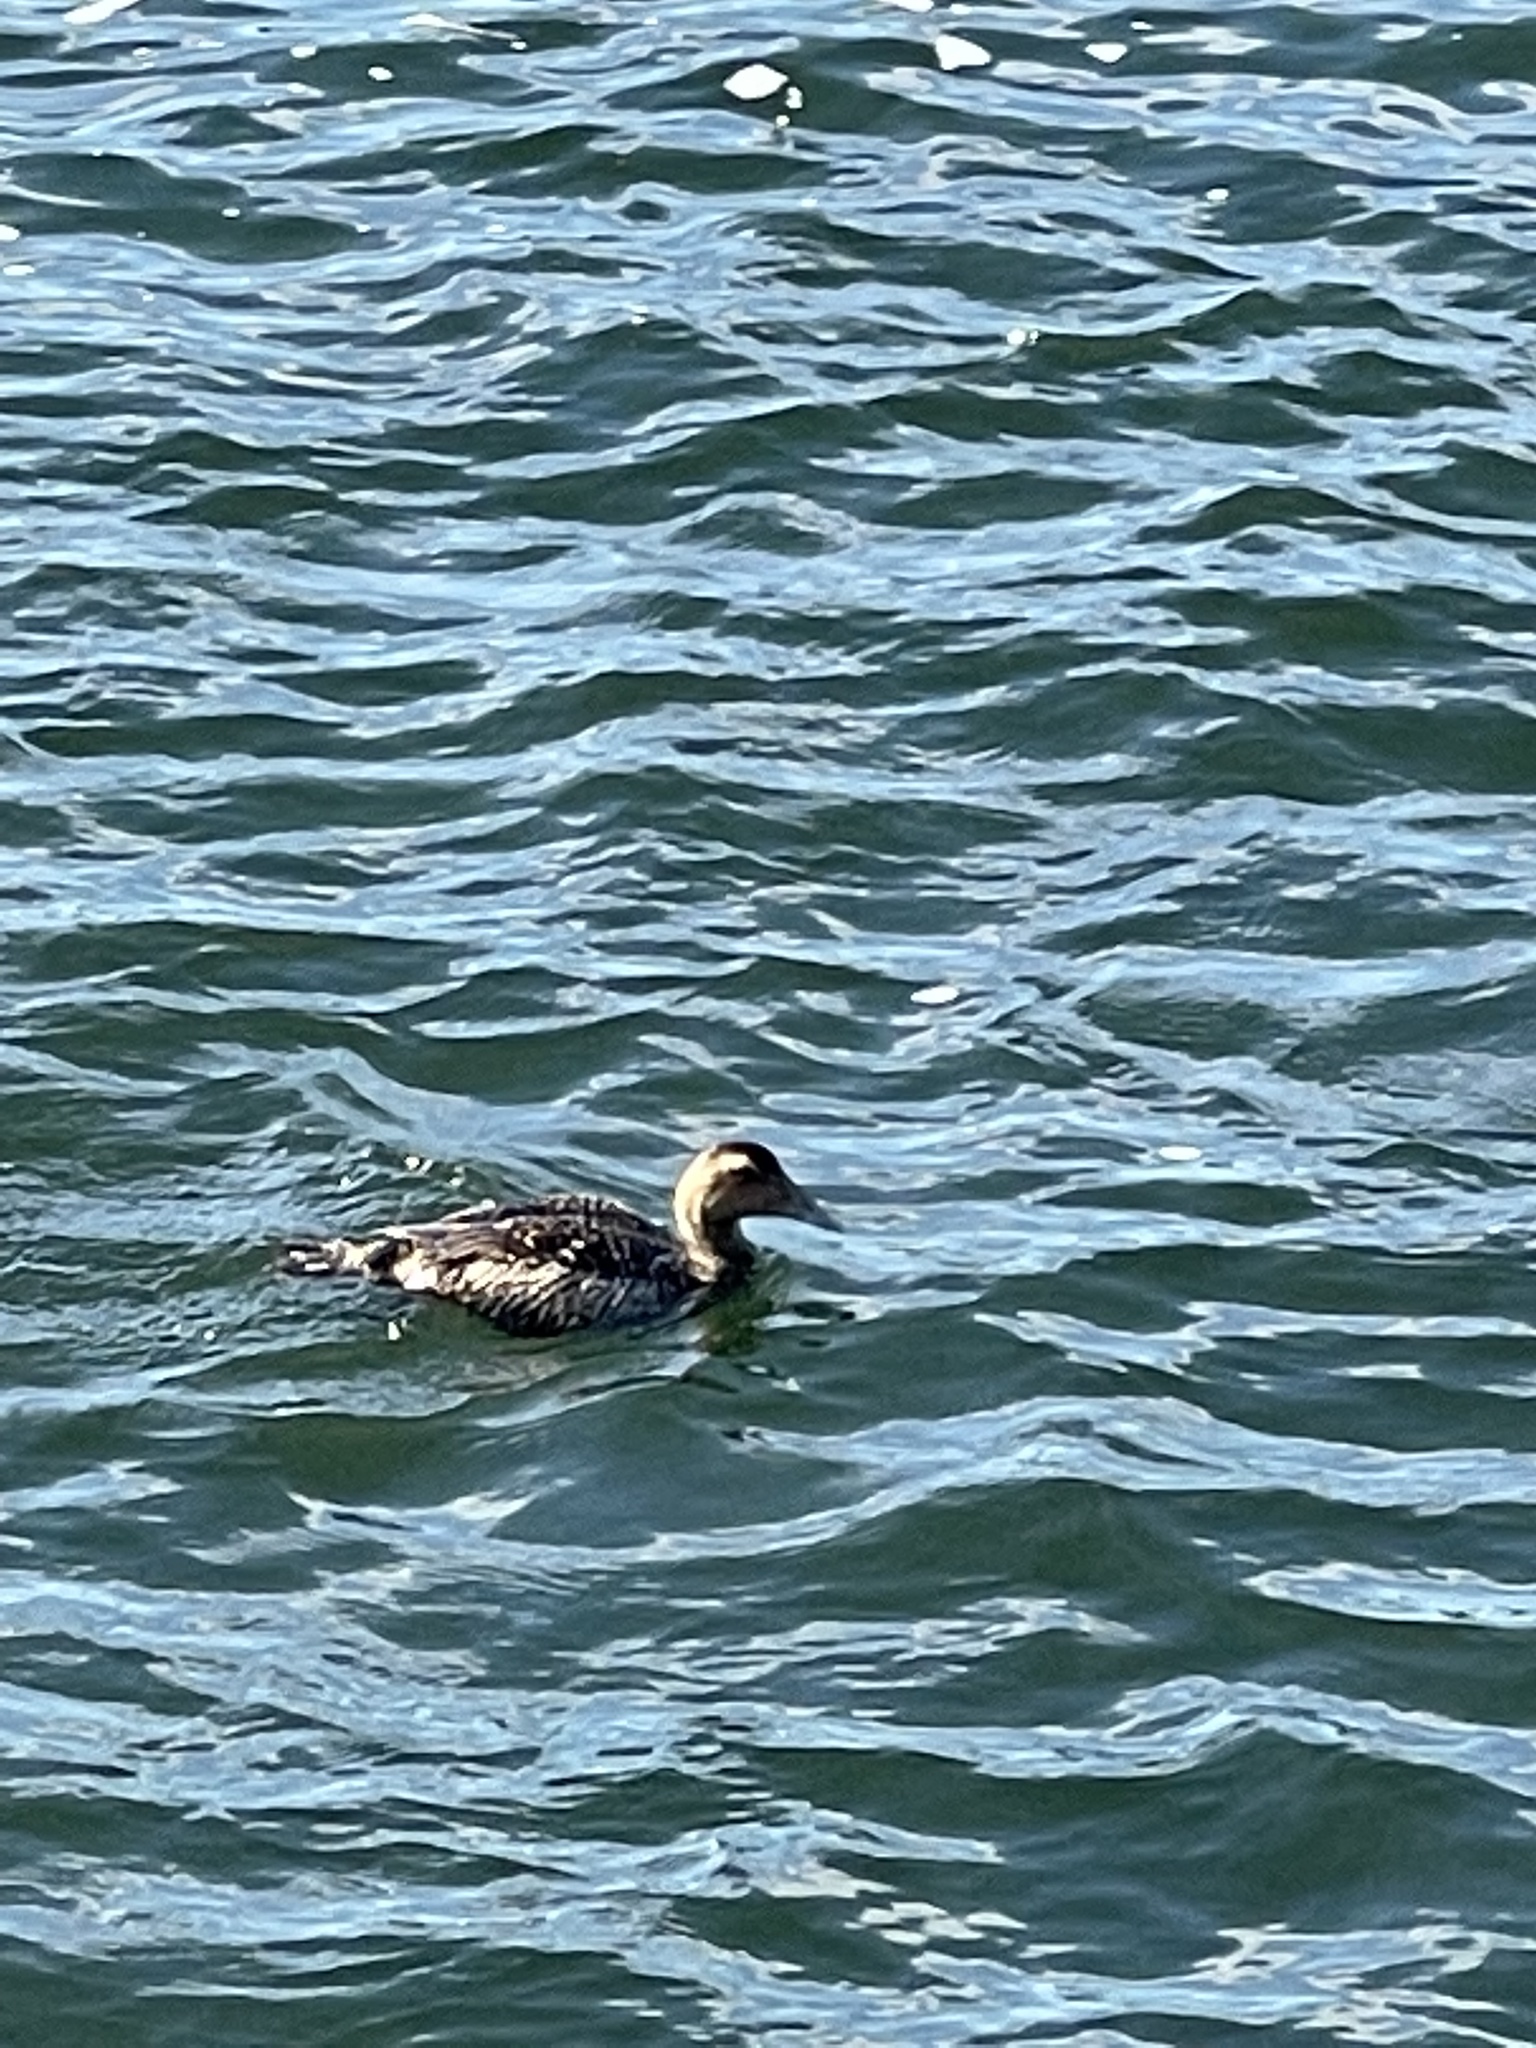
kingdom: Animalia
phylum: Chordata
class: Aves
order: Anseriformes
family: Anatidae
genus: Somateria
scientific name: Somateria mollissima
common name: Common eider
